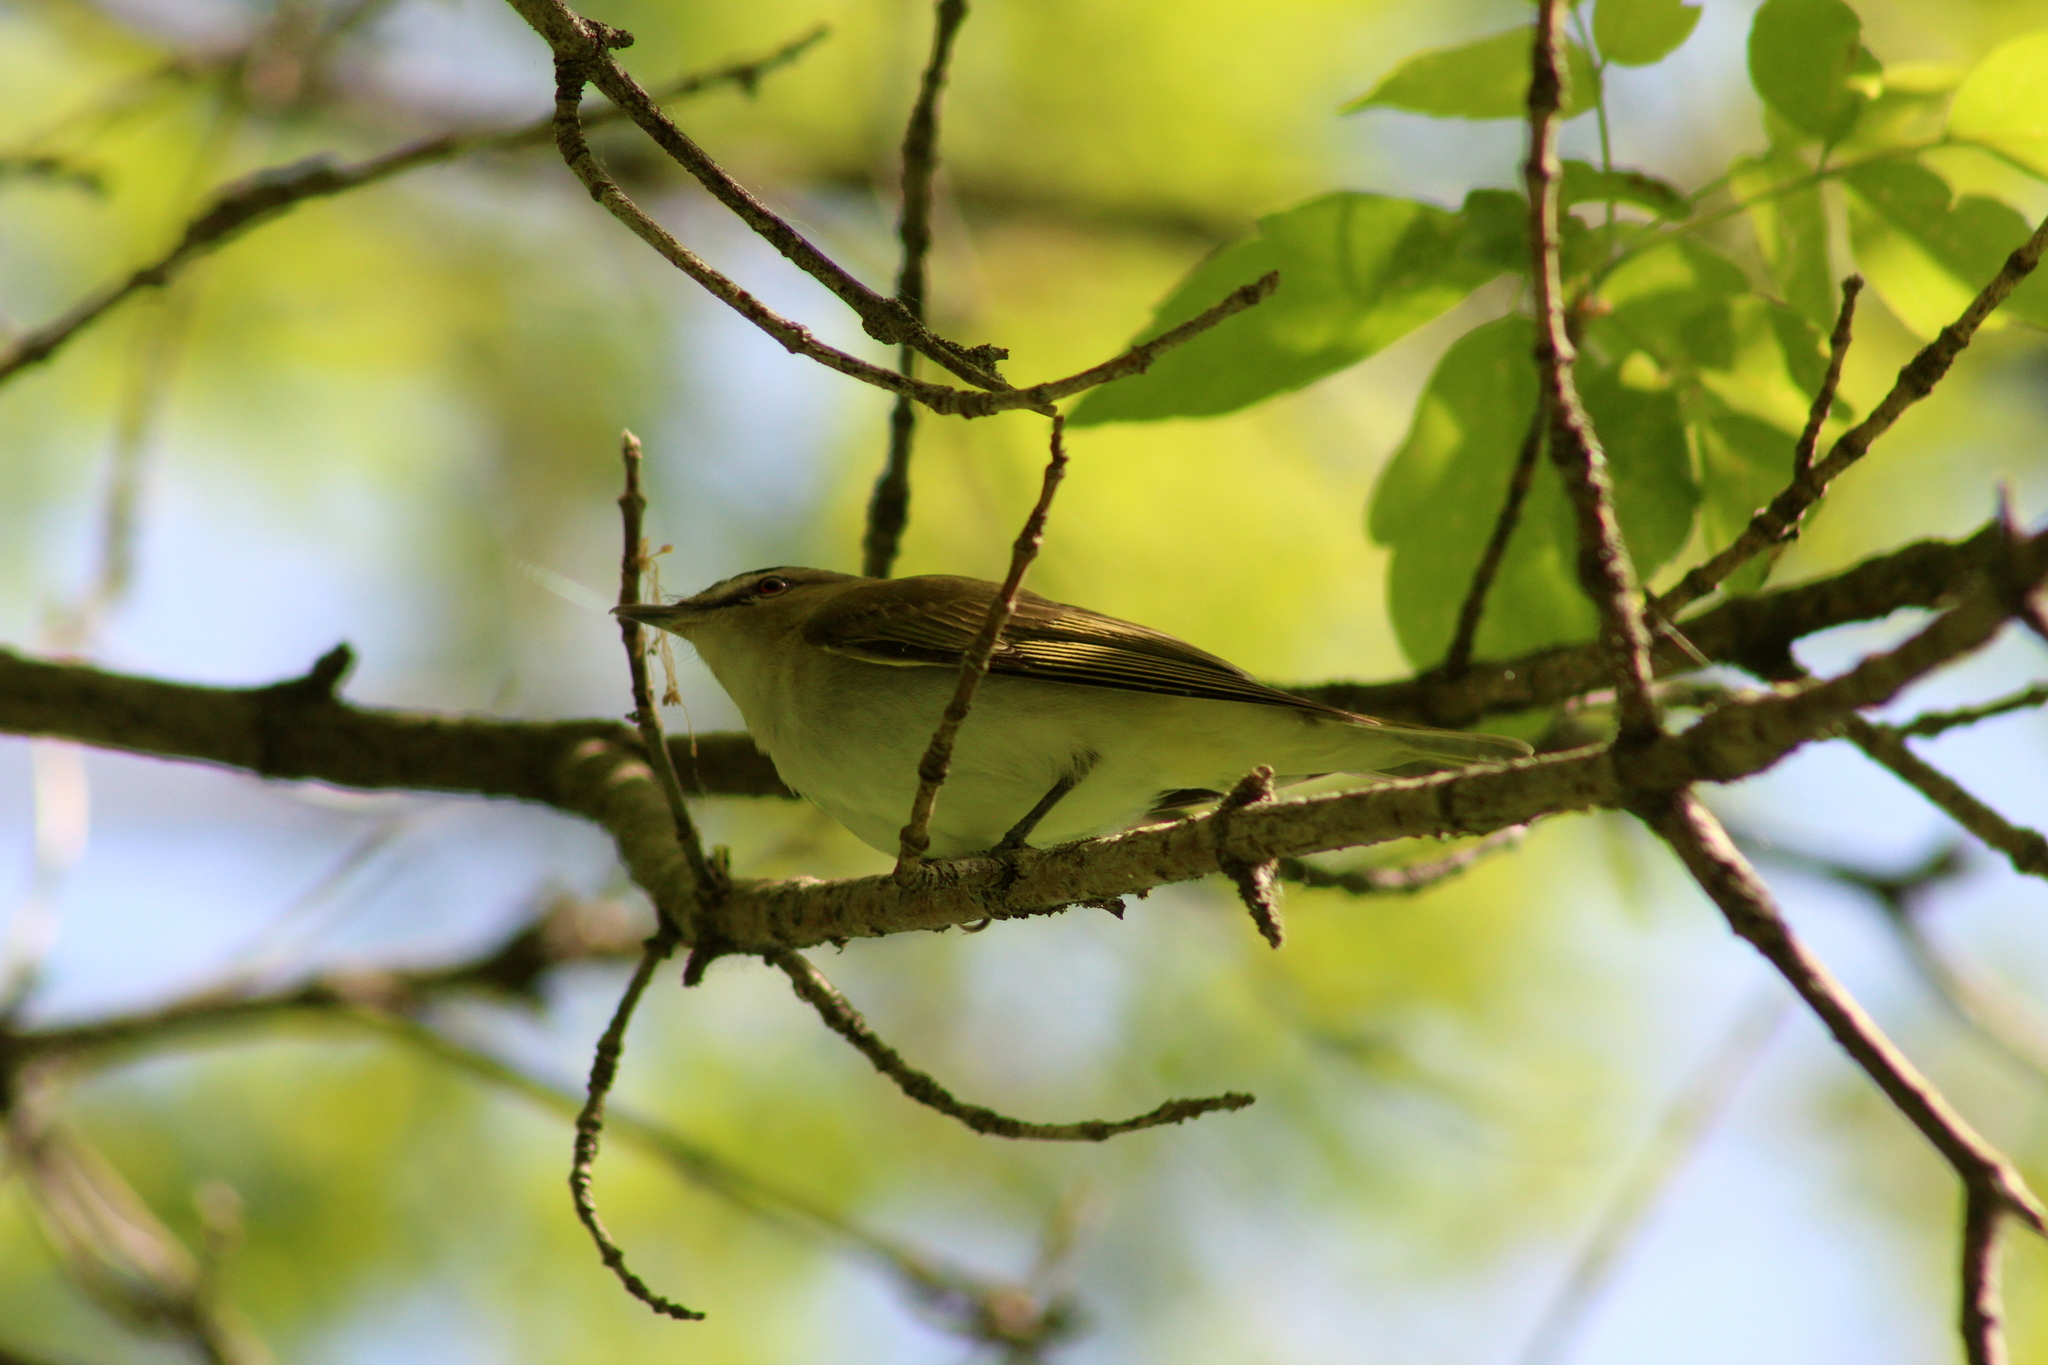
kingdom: Animalia
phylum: Chordata
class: Aves
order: Passeriformes
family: Vireonidae
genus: Vireo
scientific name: Vireo olivaceus
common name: Red-eyed vireo
